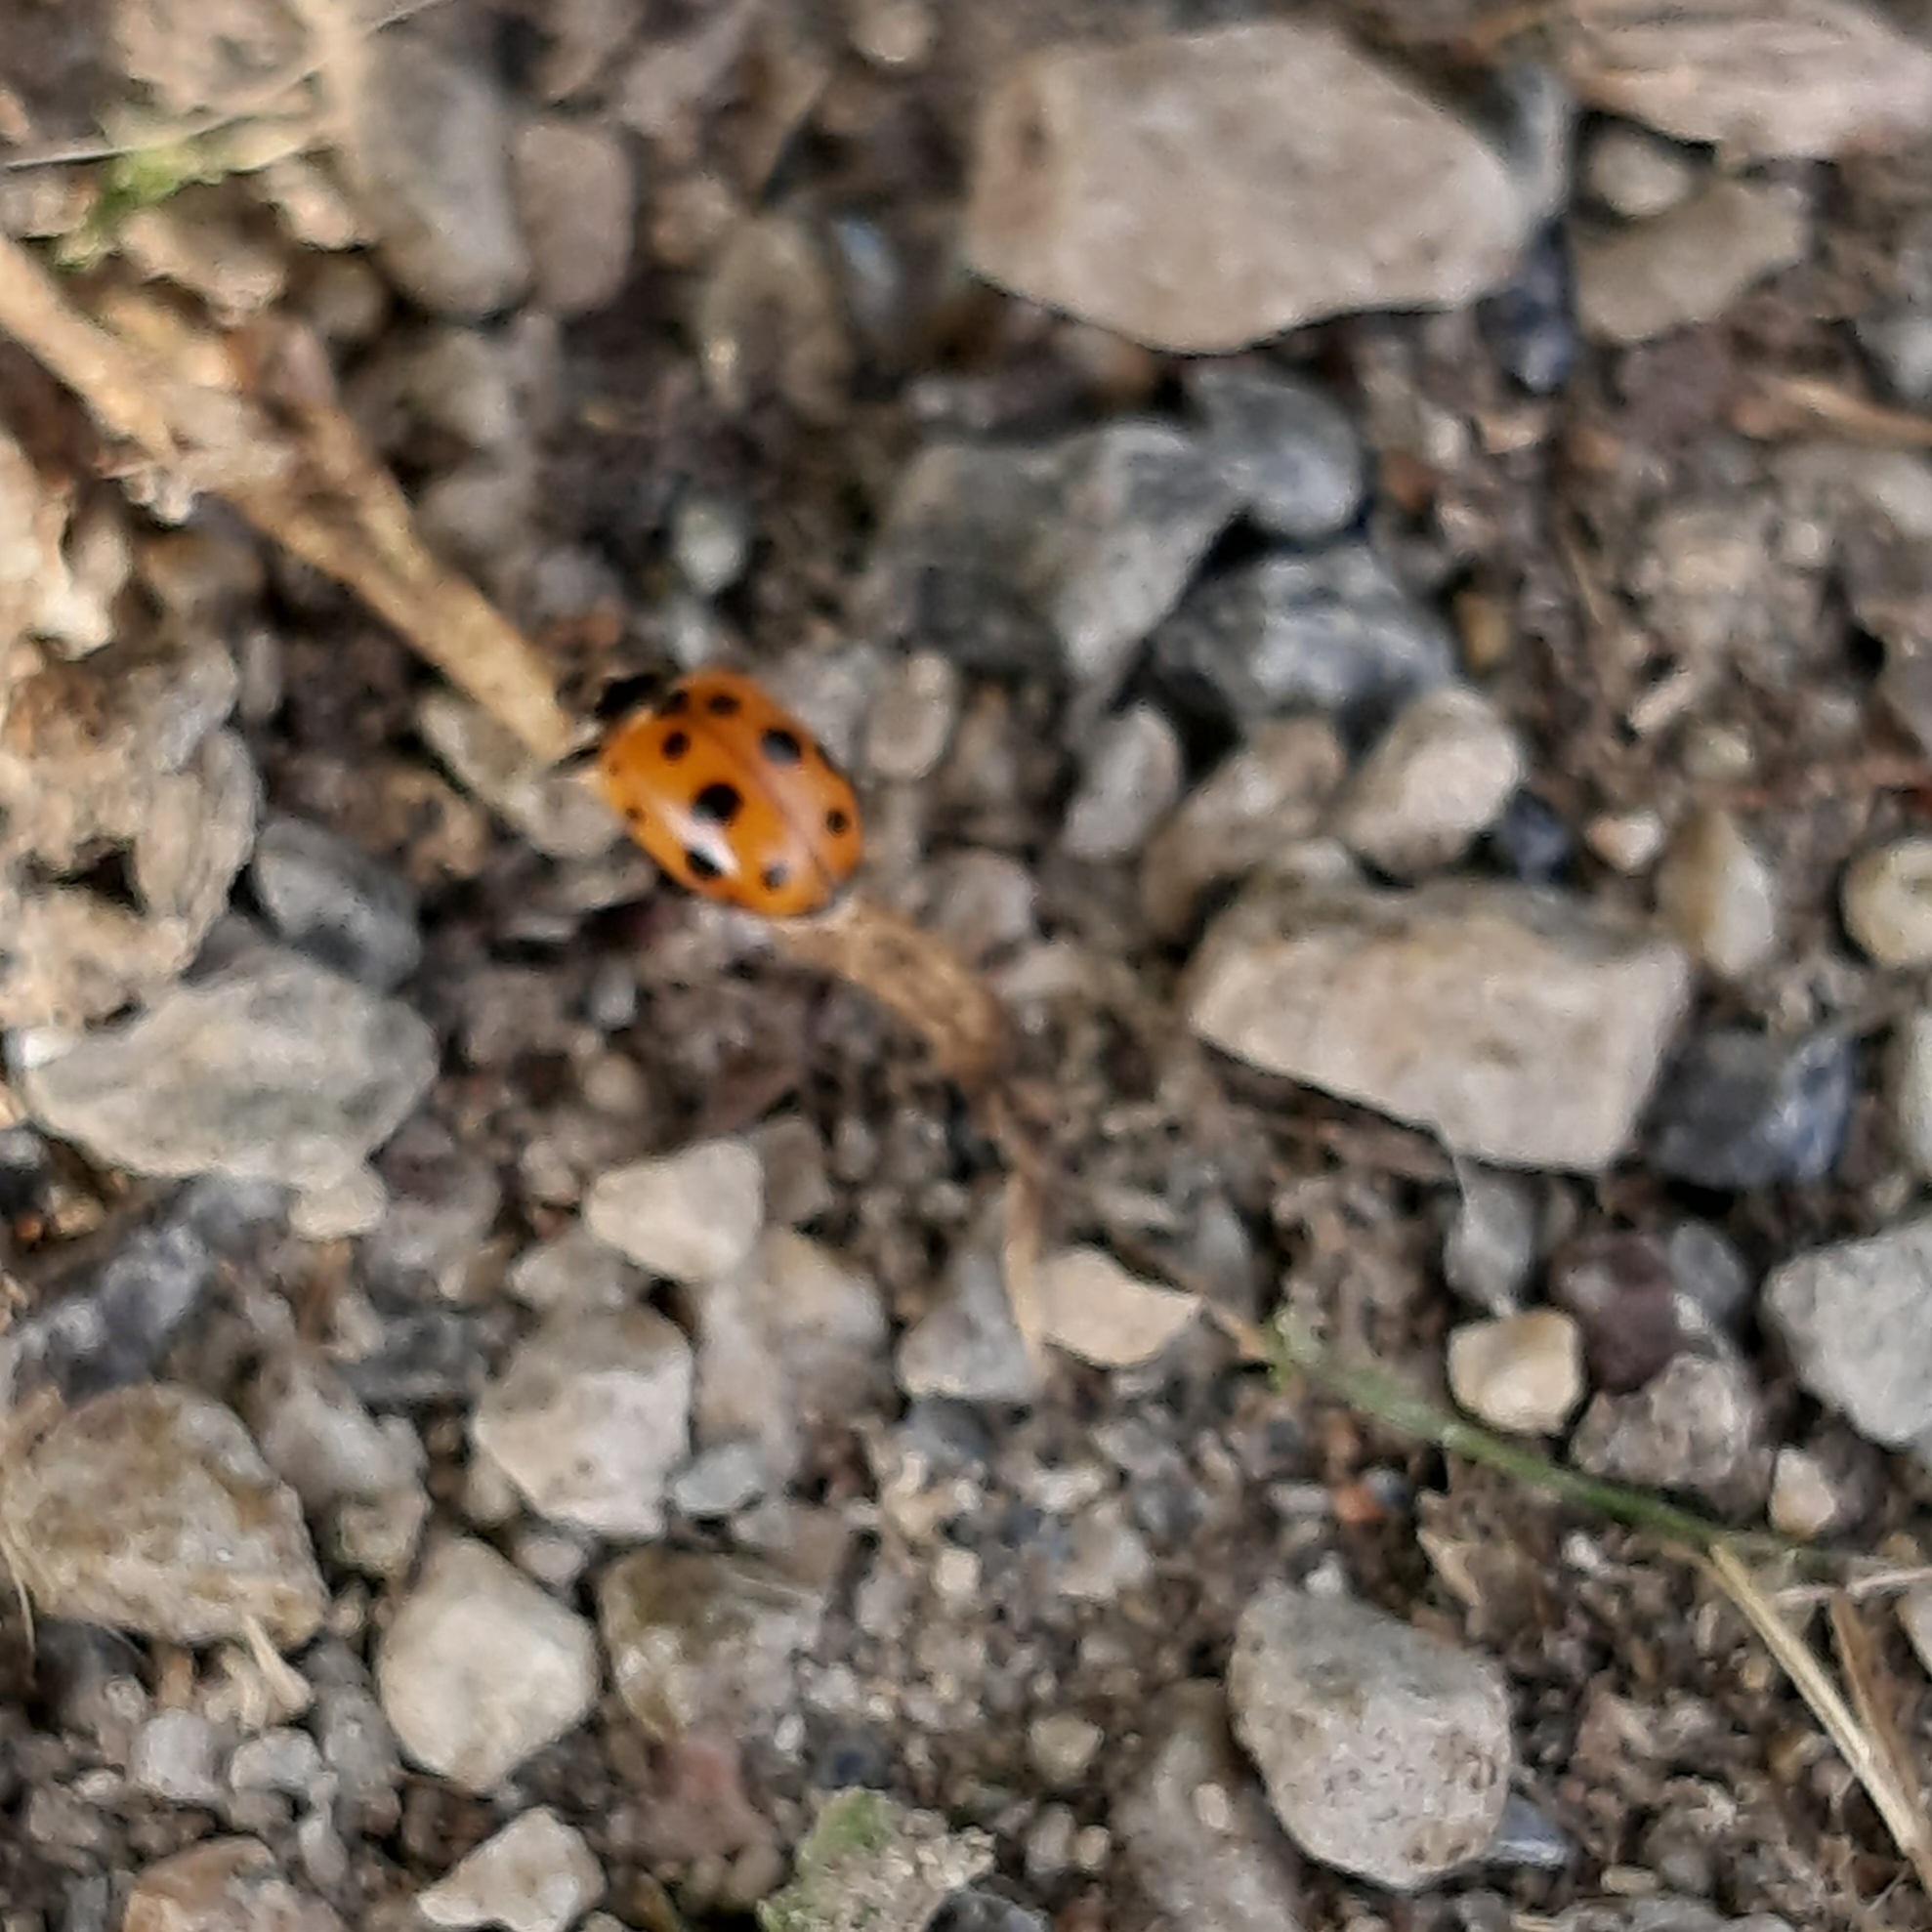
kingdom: Animalia
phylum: Arthropoda
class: Insecta
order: Coleoptera
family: Coccinellidae
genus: Hippodamia
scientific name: Hippodamia variegata
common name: Ladybird beetle
